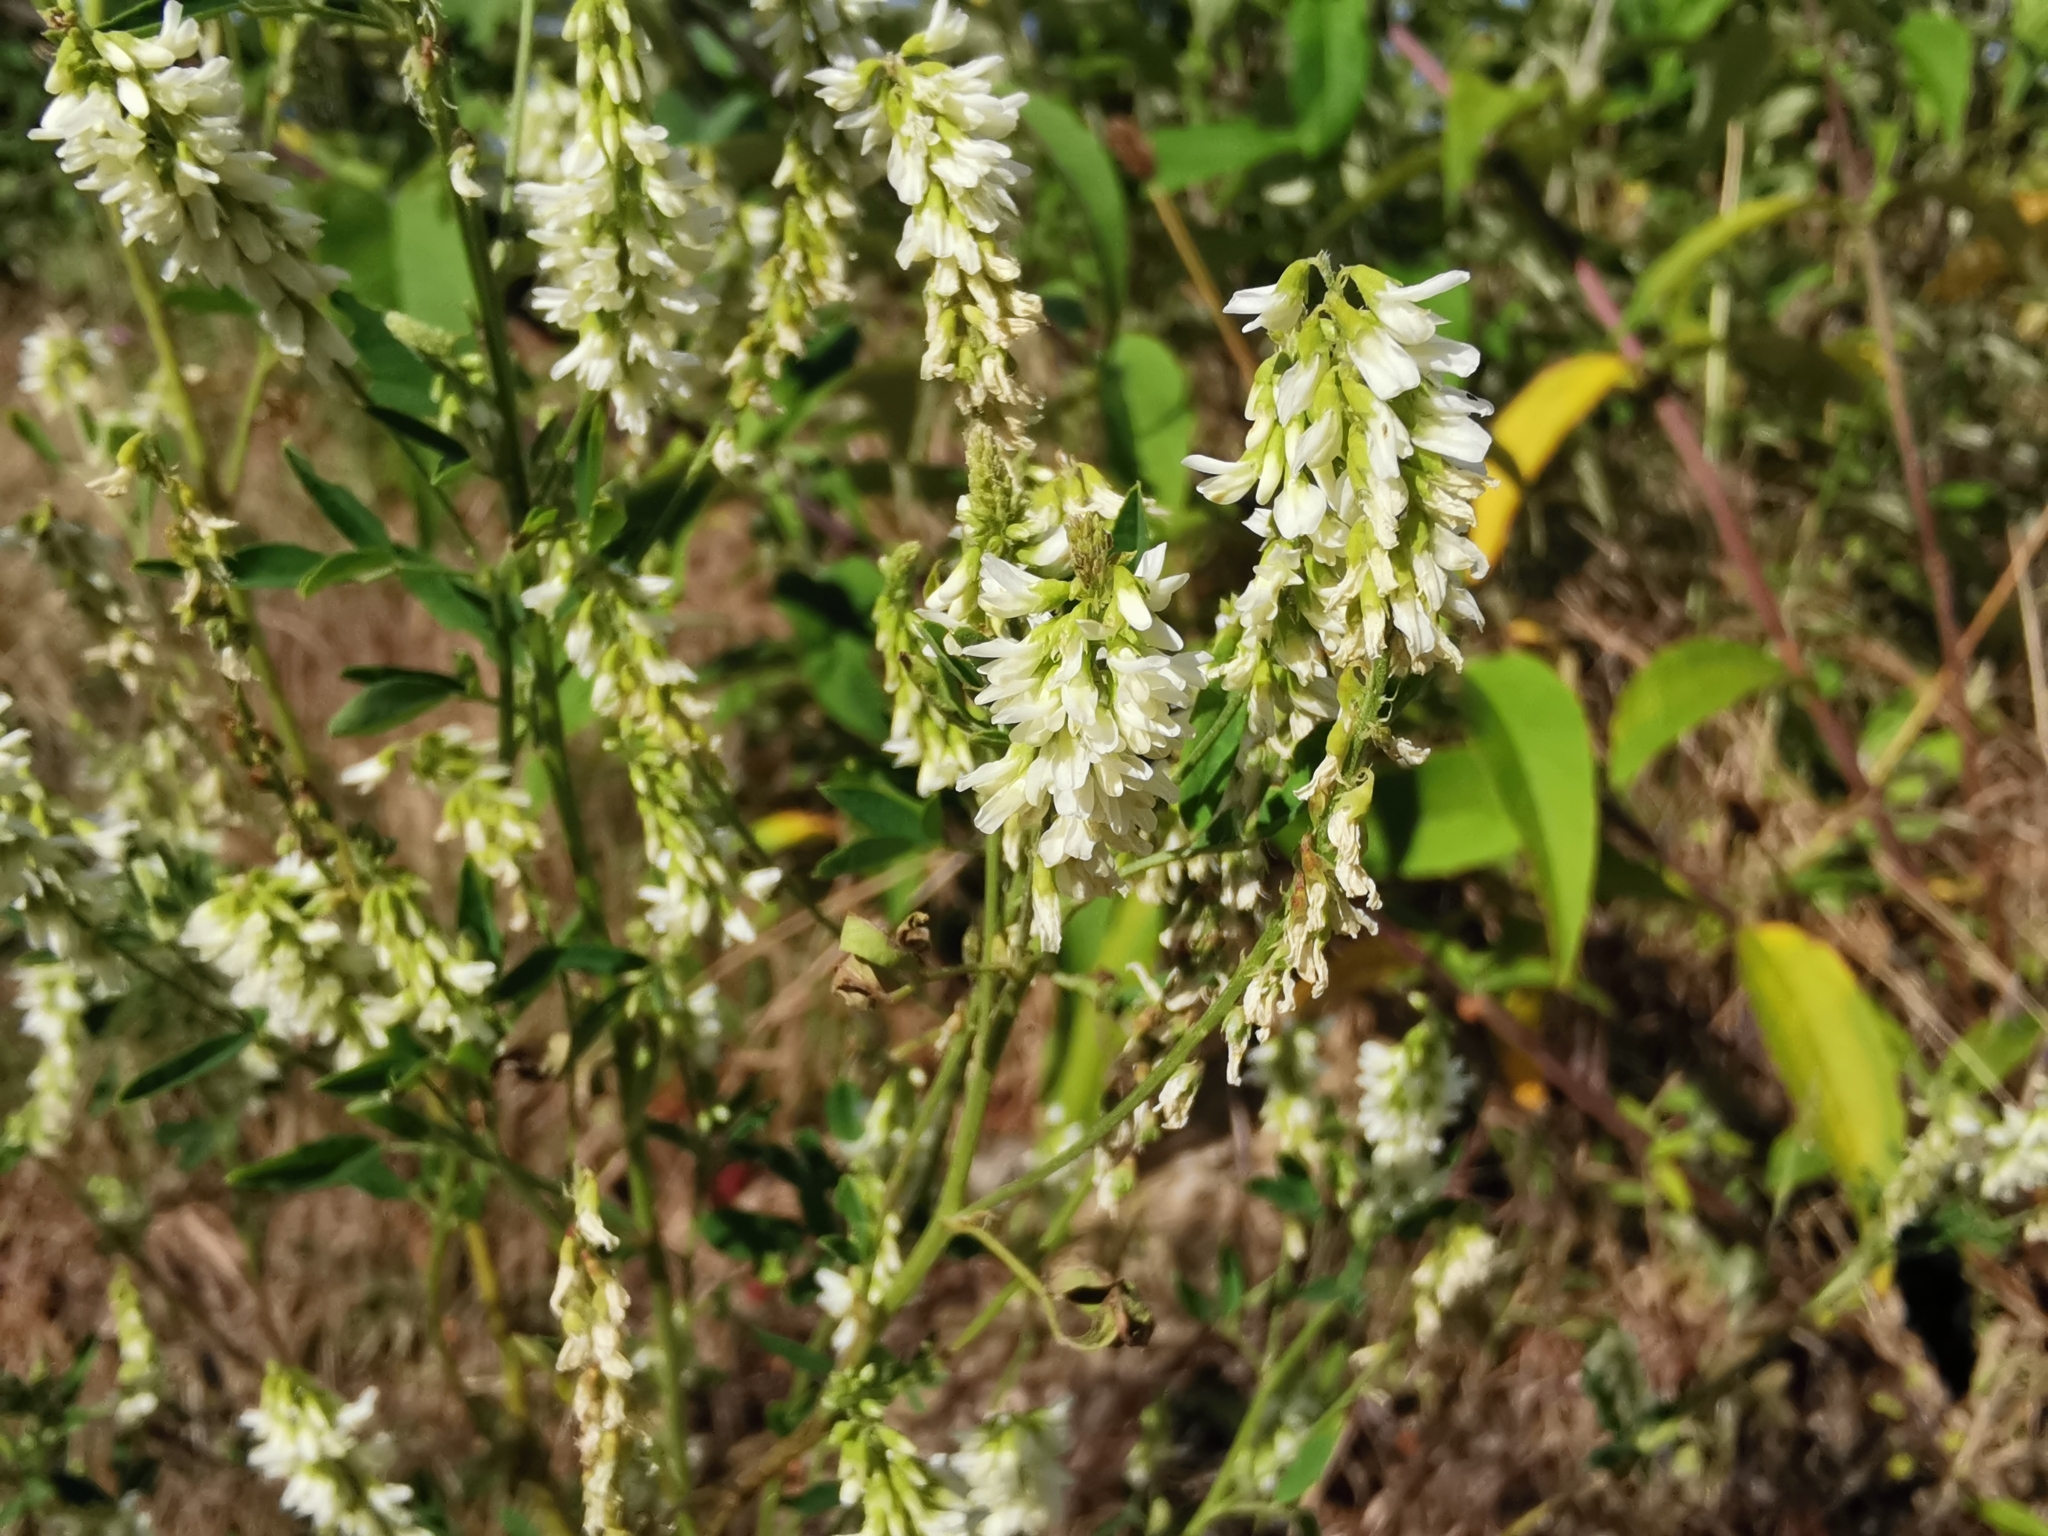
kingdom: Plantae
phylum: Tracheophyta
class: Magnoliopsida
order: Fabales
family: Fabaceae
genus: Melilotus
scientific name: Melilotus albus
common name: White melilot
